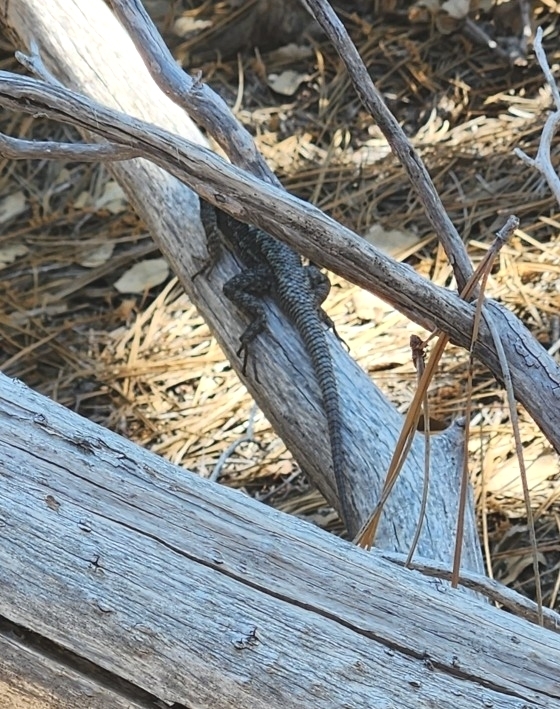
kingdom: Animalia
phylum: Chordata
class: Squamata
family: Phrynosomatidae
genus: Sceloporus
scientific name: Sceloporus occidentalis
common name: Western fence lizard
